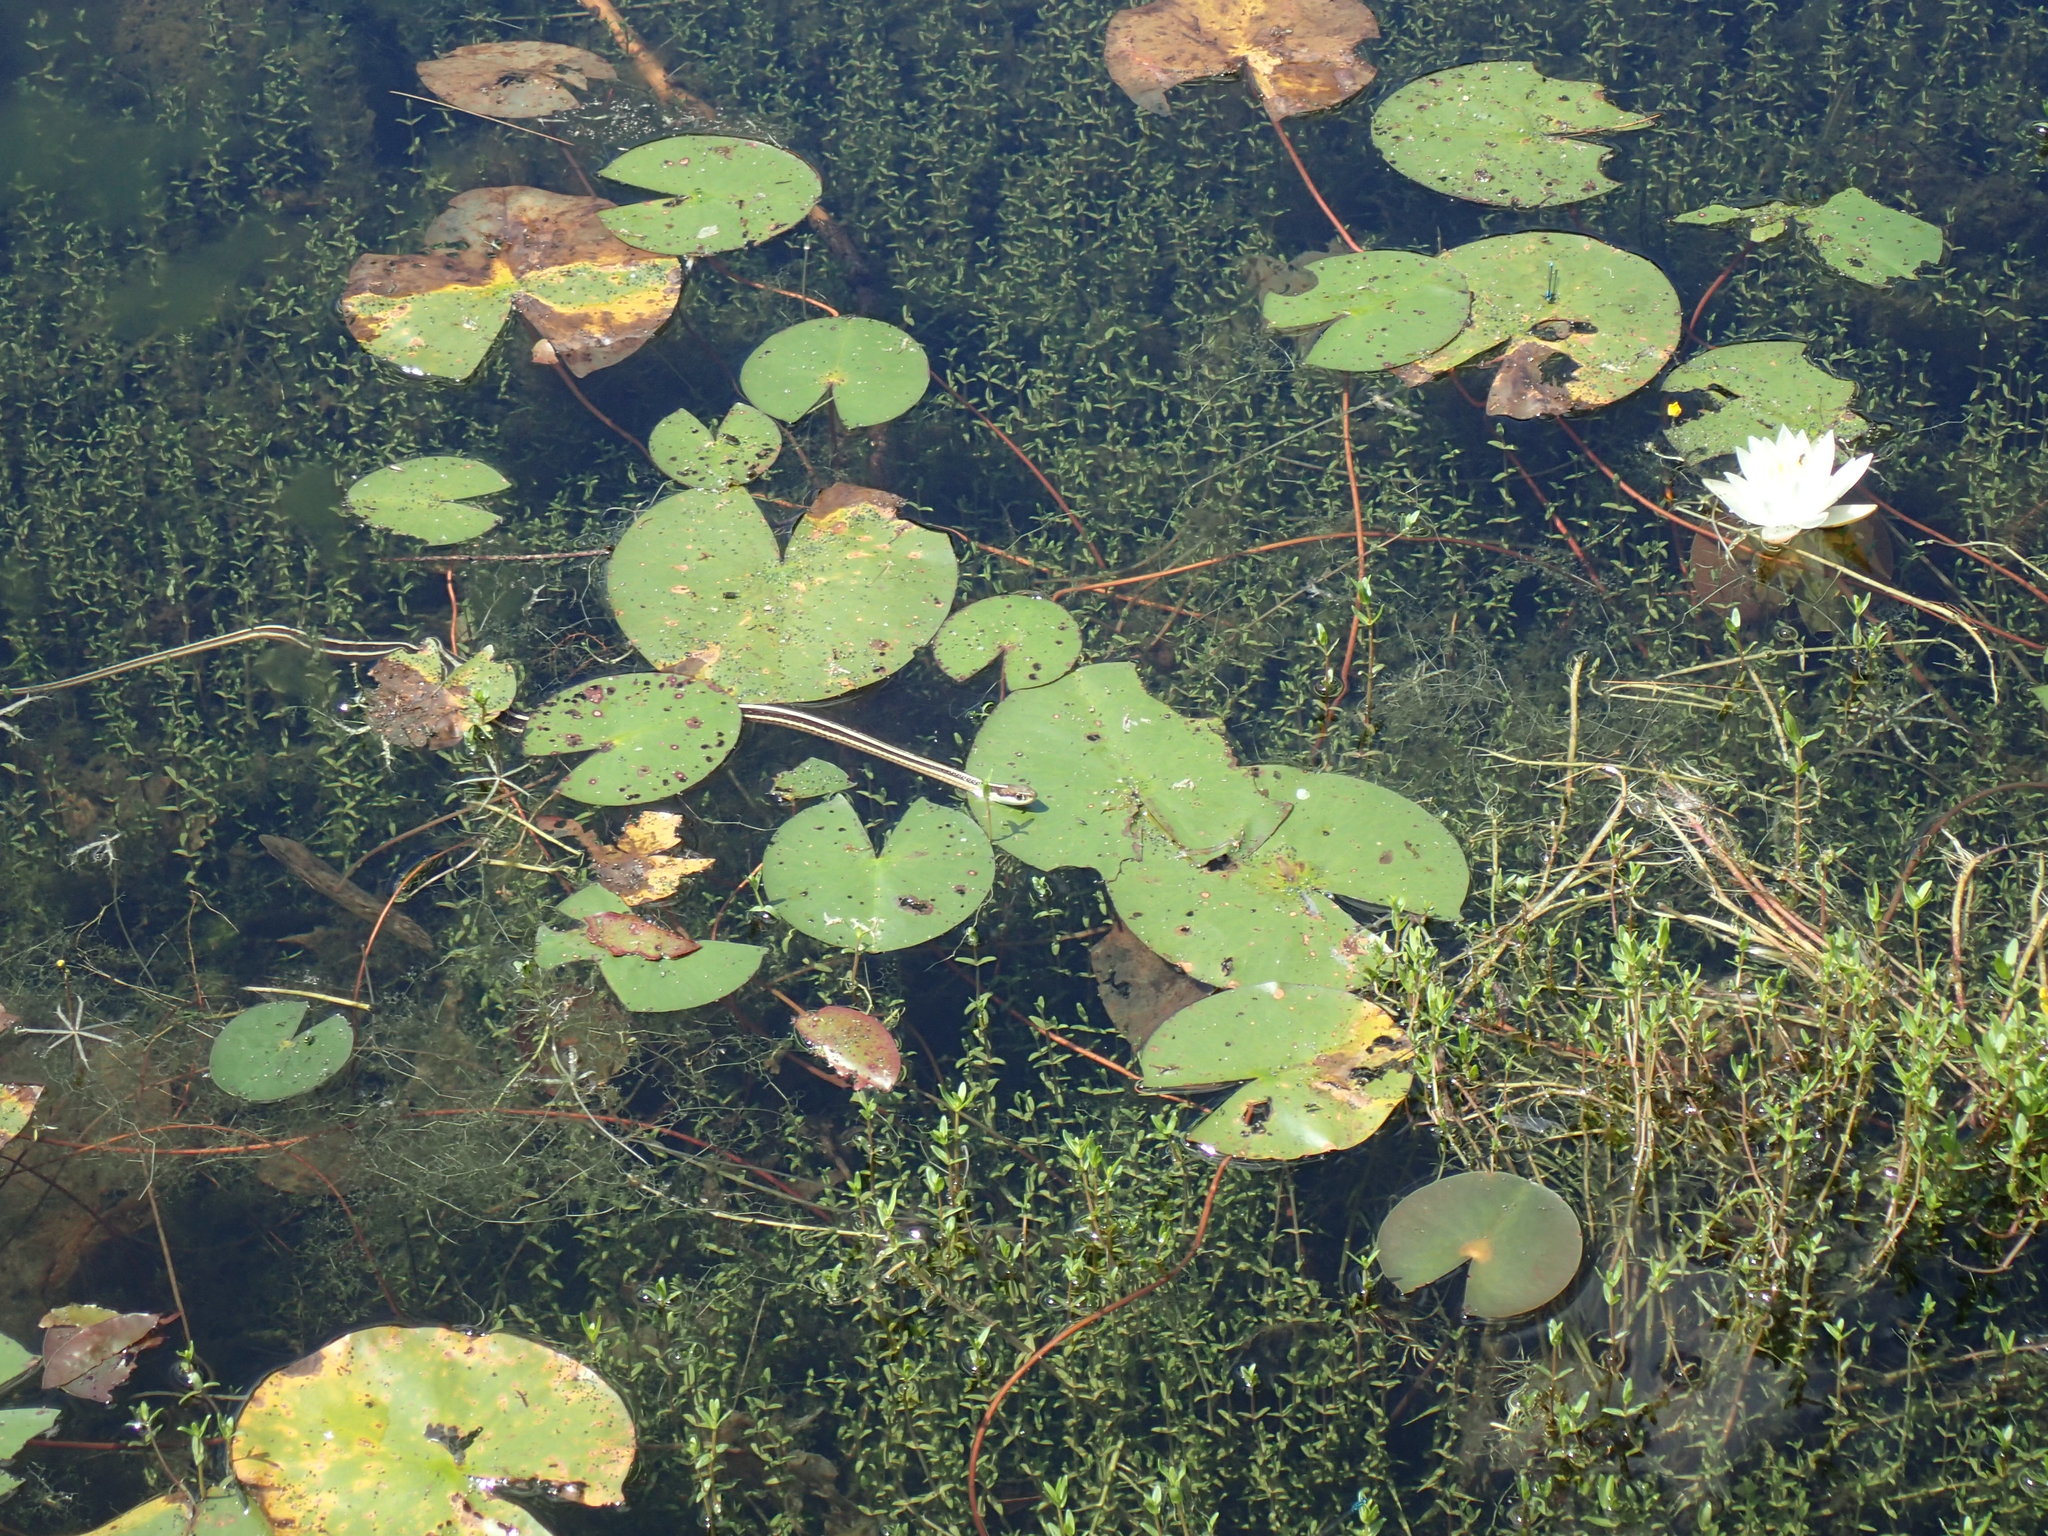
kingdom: Animalia
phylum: Chordata
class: Squamata
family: Colubridae
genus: Thamnophis
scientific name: Thamnophis saurita
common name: Eastern ribbonsnake
